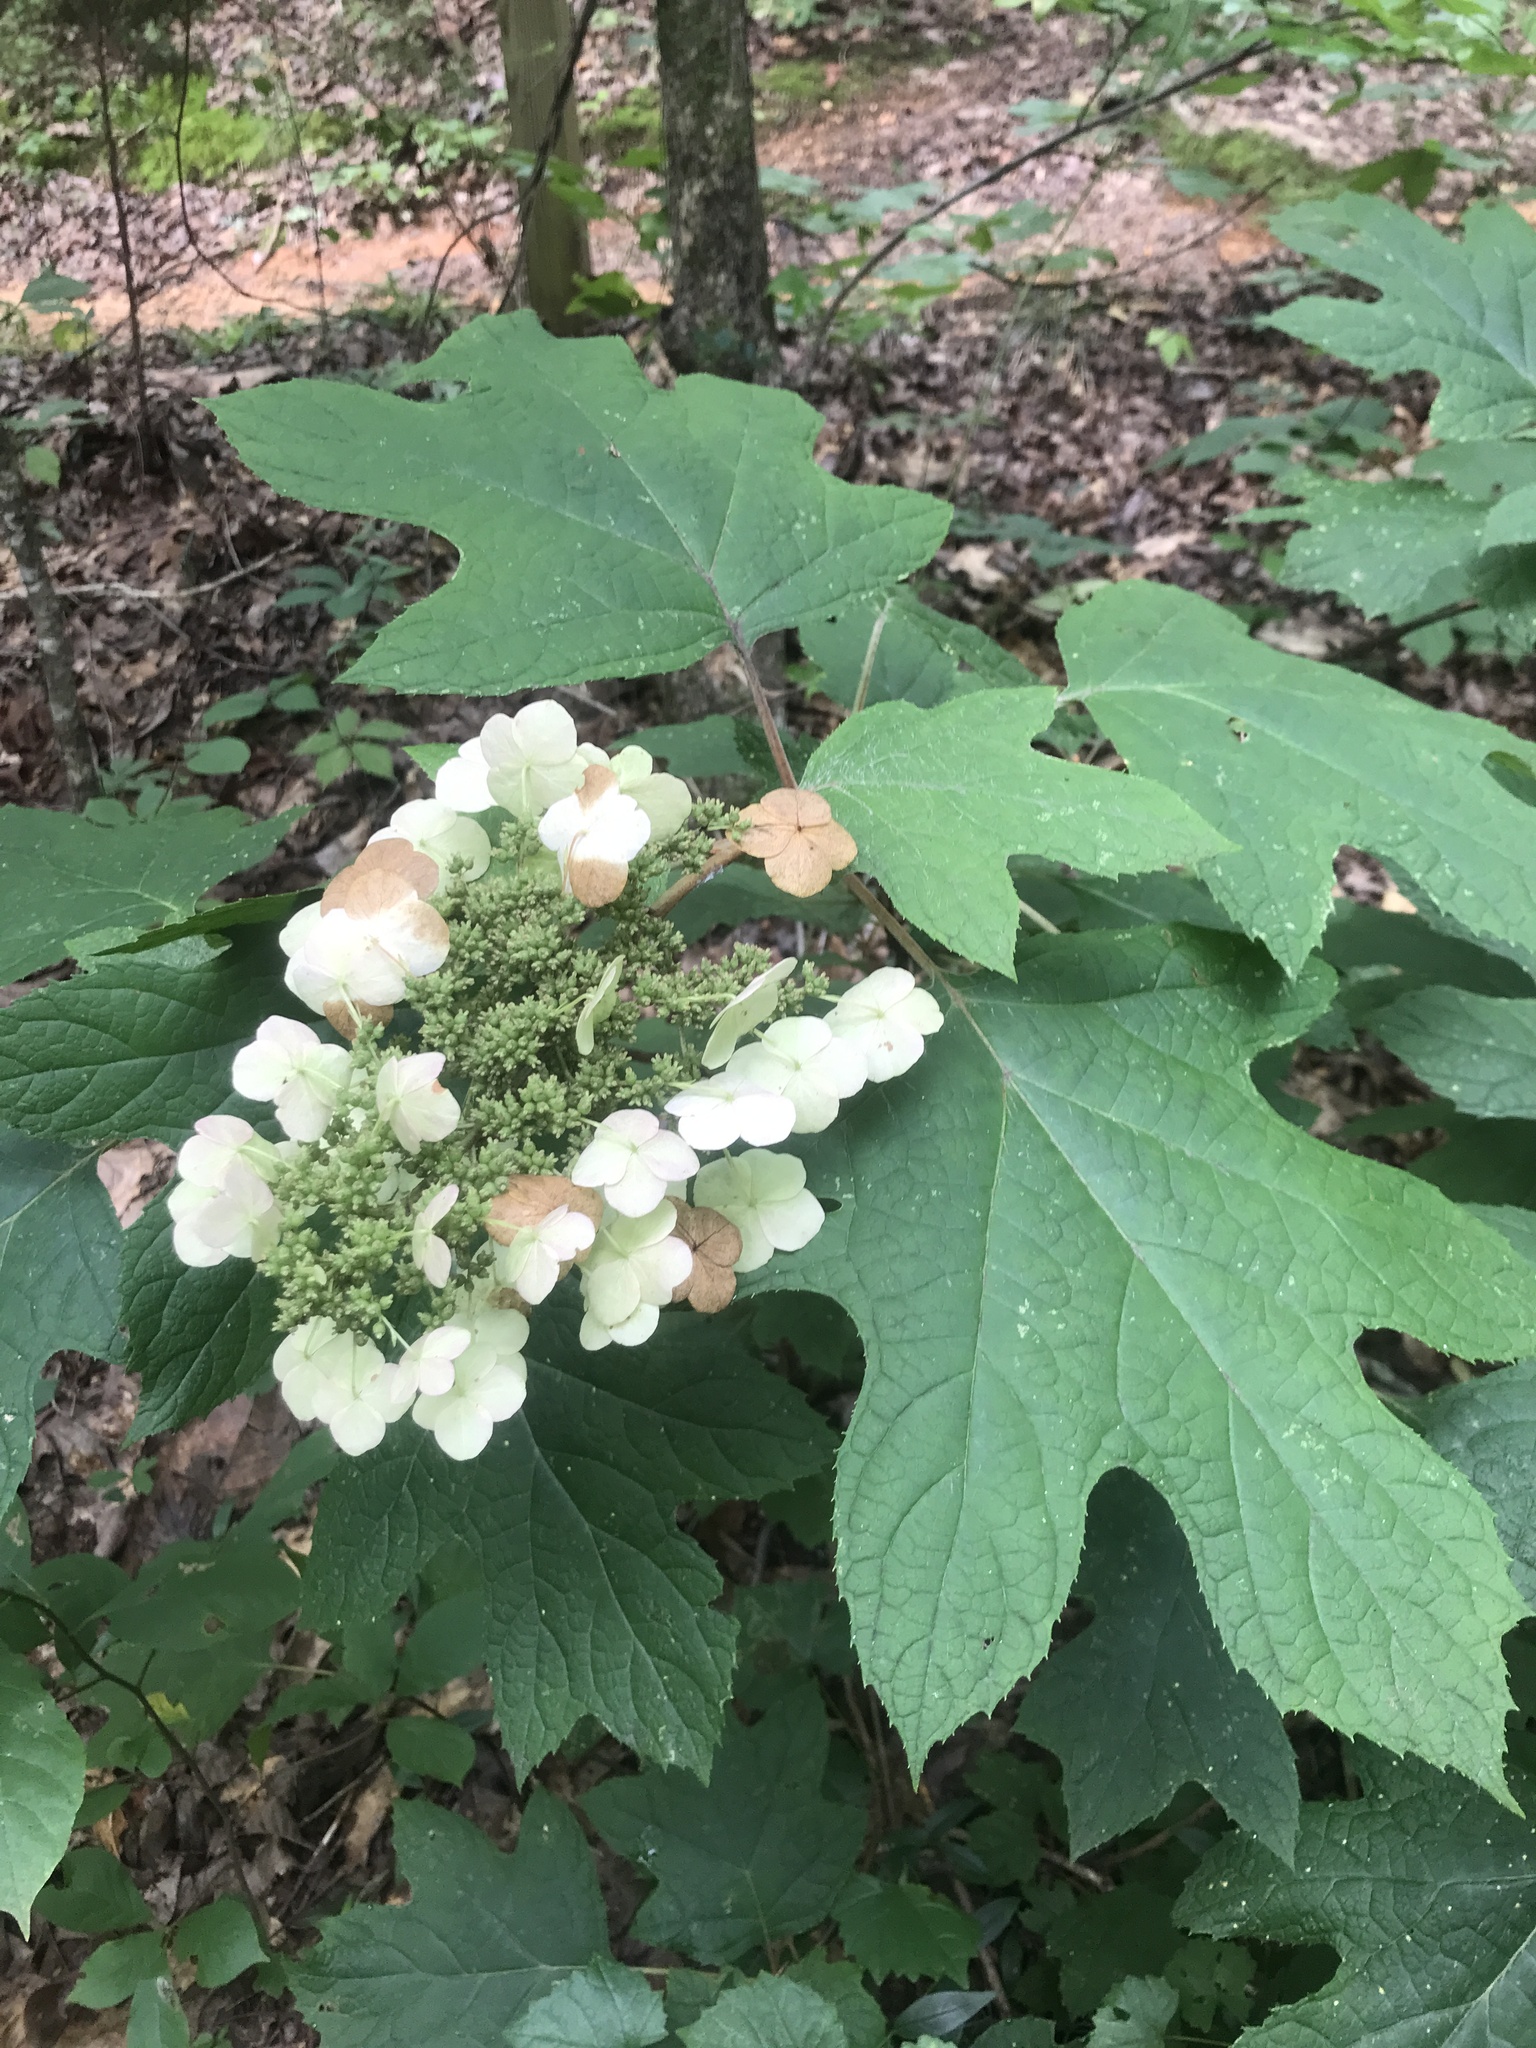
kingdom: Plantae
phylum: Tracheophyta
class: Magnoliopsida
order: Cornales
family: Hydrangeaceae
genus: Hydrangea
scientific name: Hydrangea quercifolia
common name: Oak-leaf hydrangea
